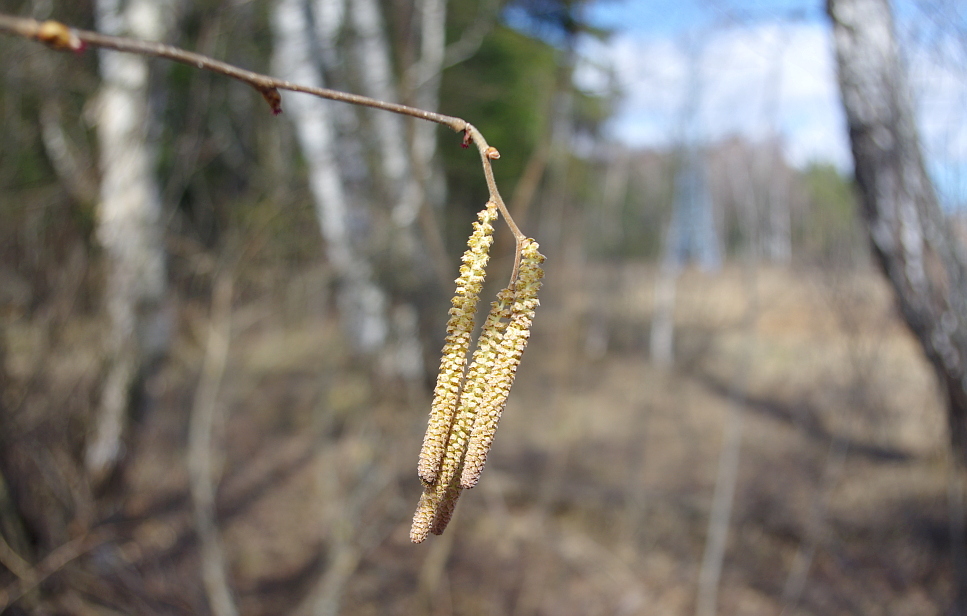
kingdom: Plantae
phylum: Tracheophyta
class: Magnoliopsida
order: Fagales
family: Betulaceae
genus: Corylus
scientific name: Corylus avellana
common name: European hazel
